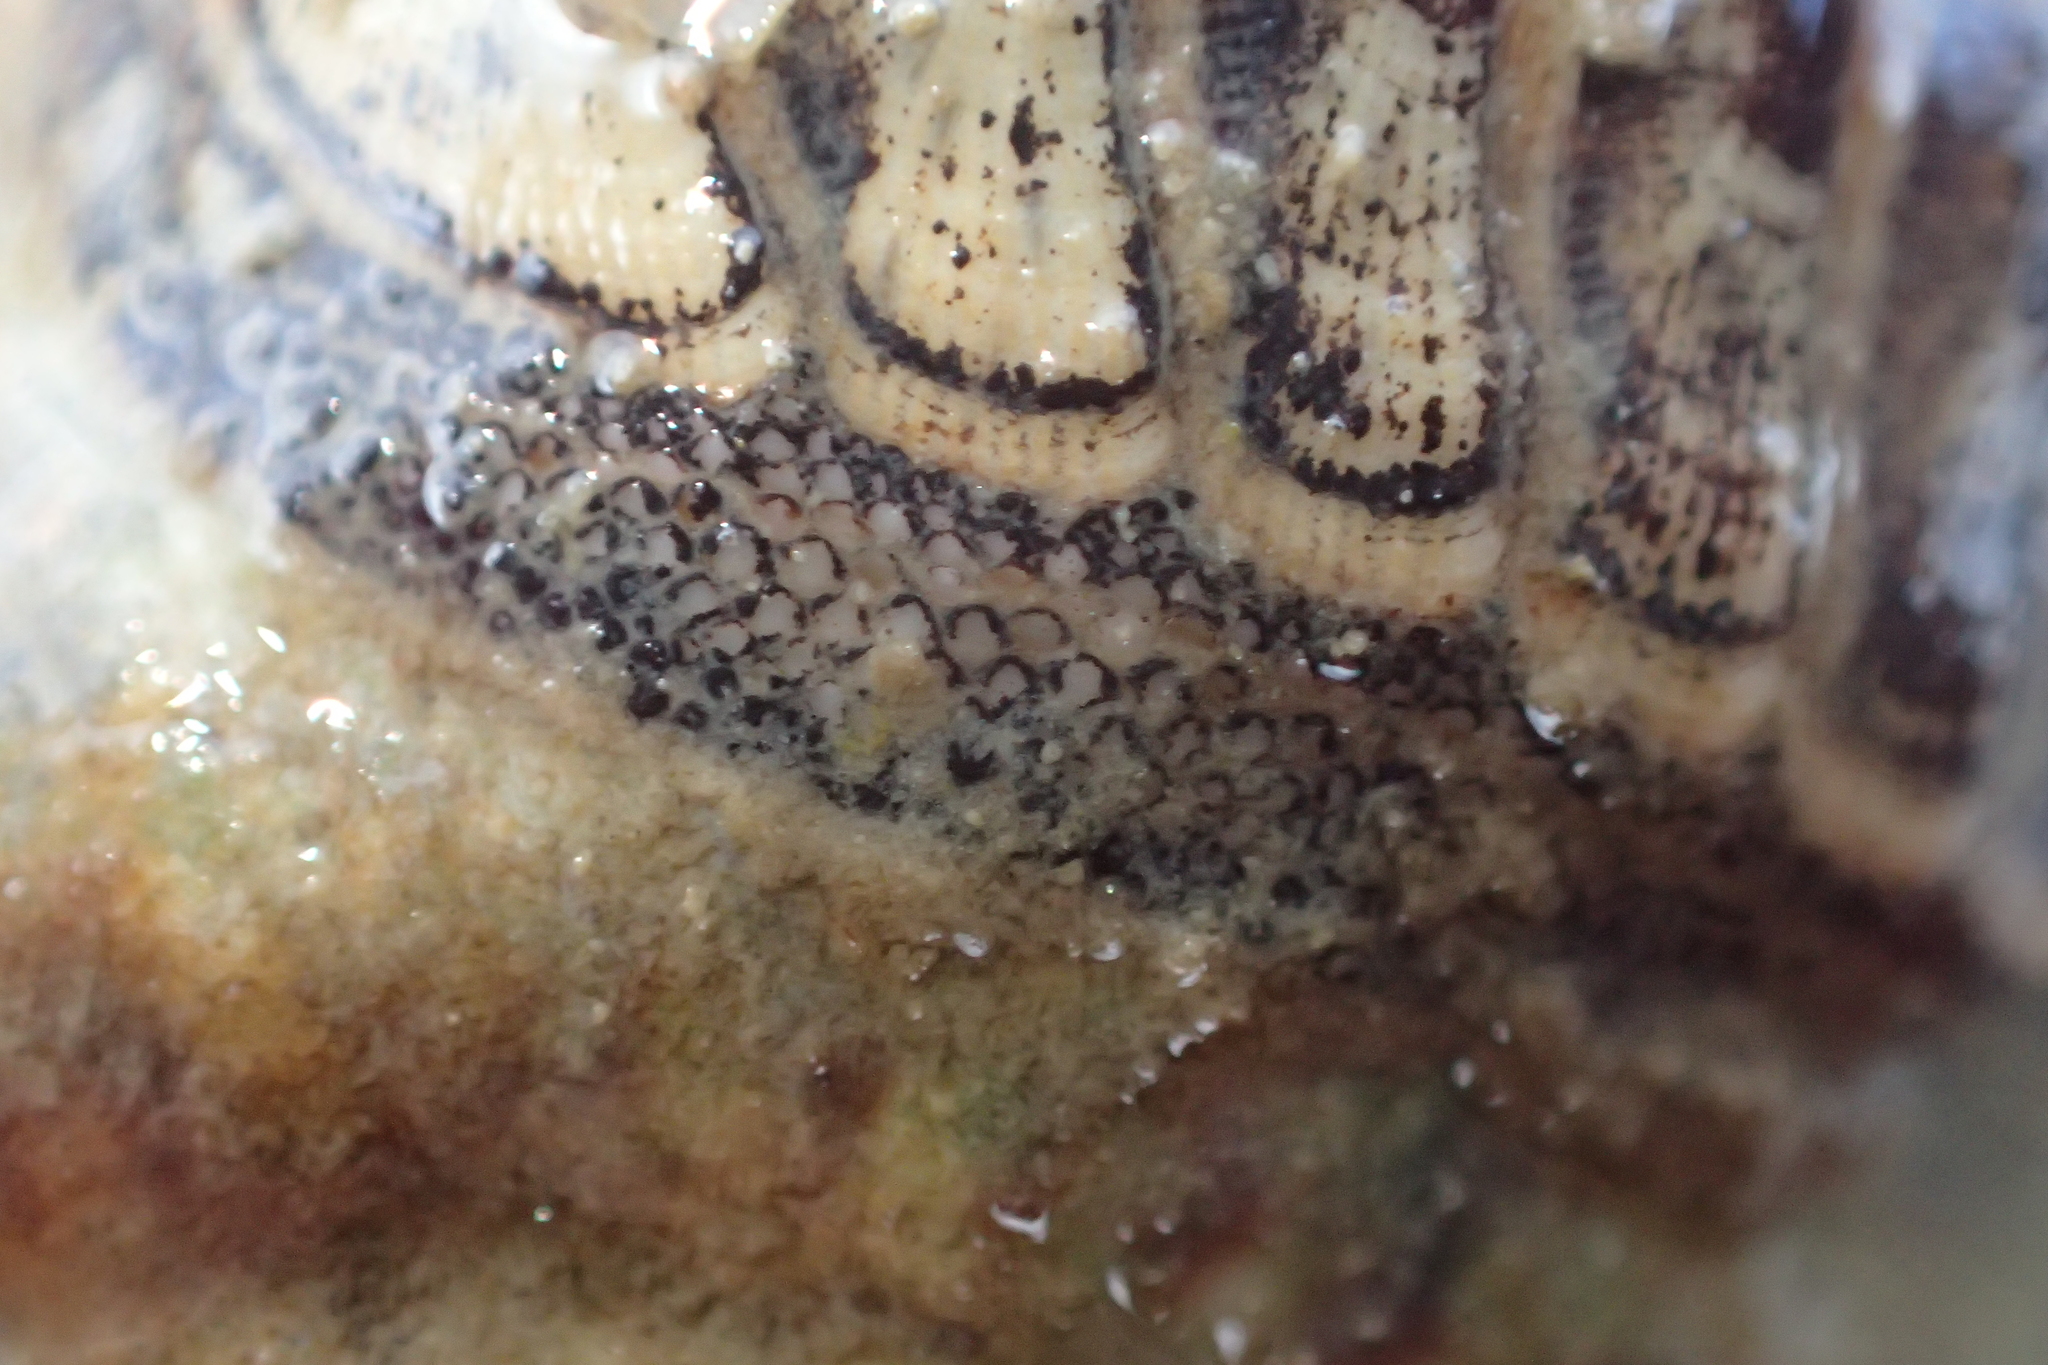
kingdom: Animalia
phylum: Mollusca
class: Polyplacophora
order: Chitonida
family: Chitonidae
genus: Chiton
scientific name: Chiton glaucus
